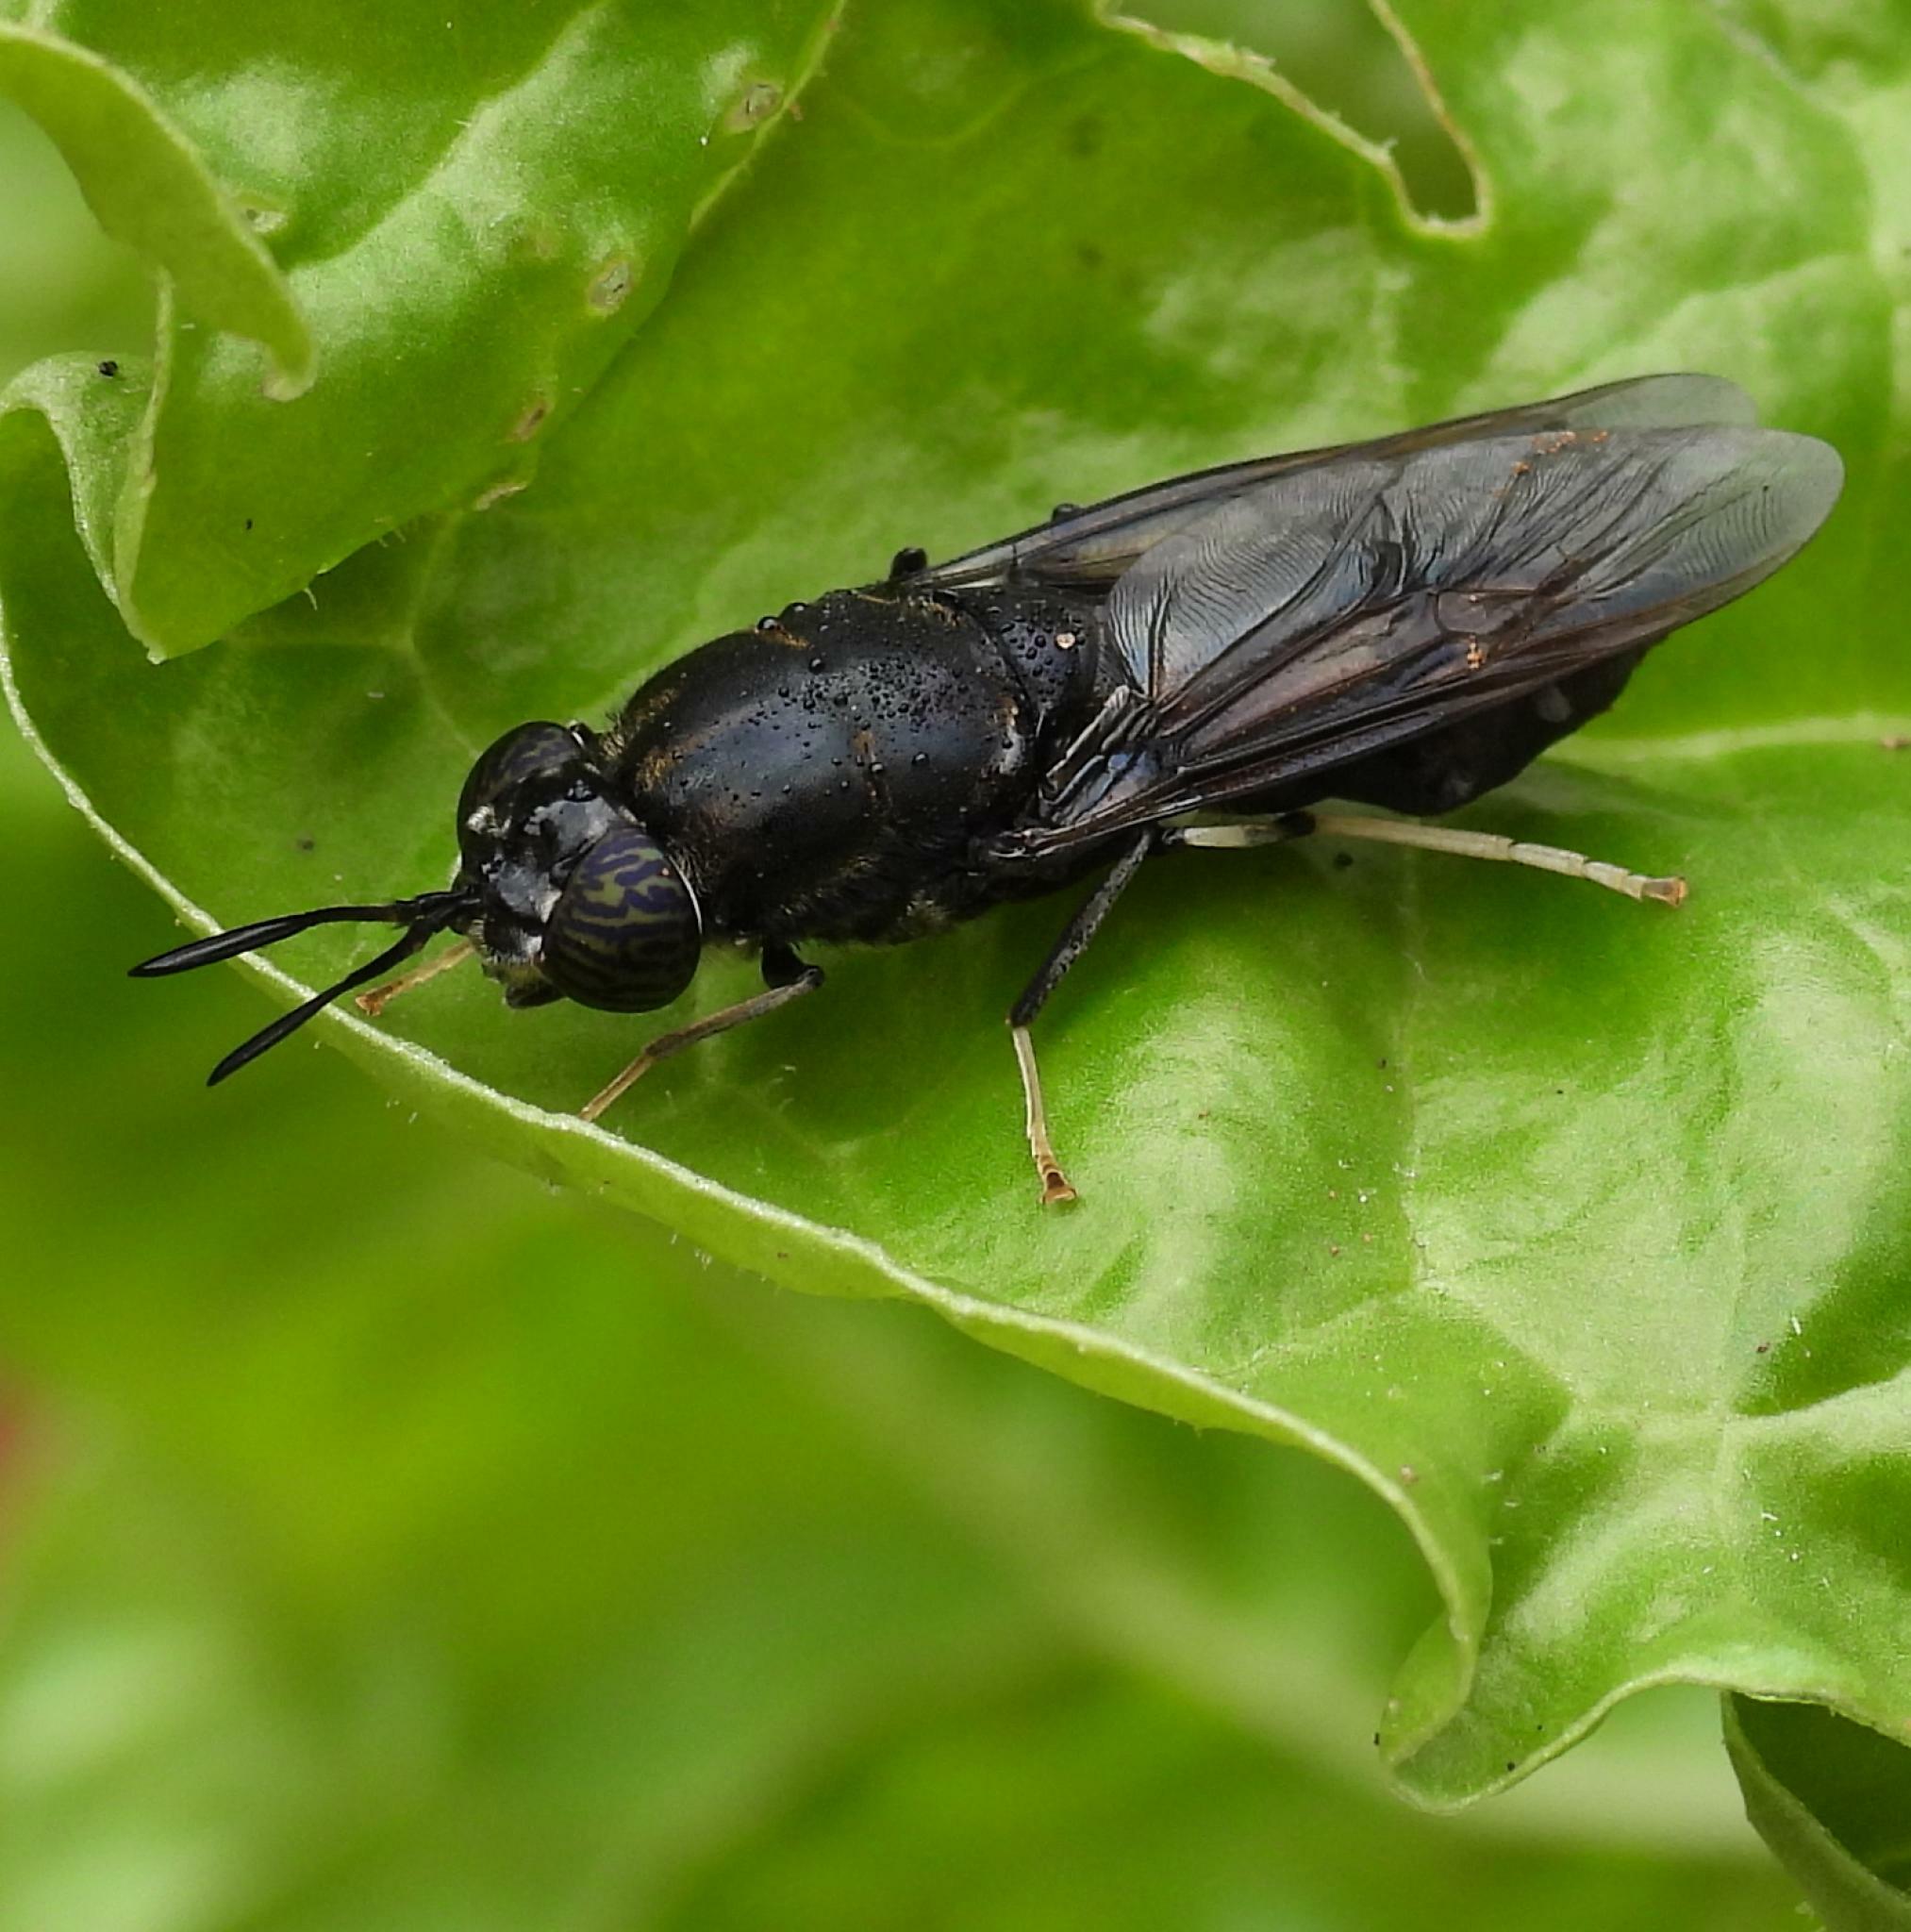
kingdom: Animalia
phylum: Arthropoda
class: Insecta
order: Diptera
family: Stratiomyidae
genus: Hermetia
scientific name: Hermetia illucens
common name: Black soldier fly
